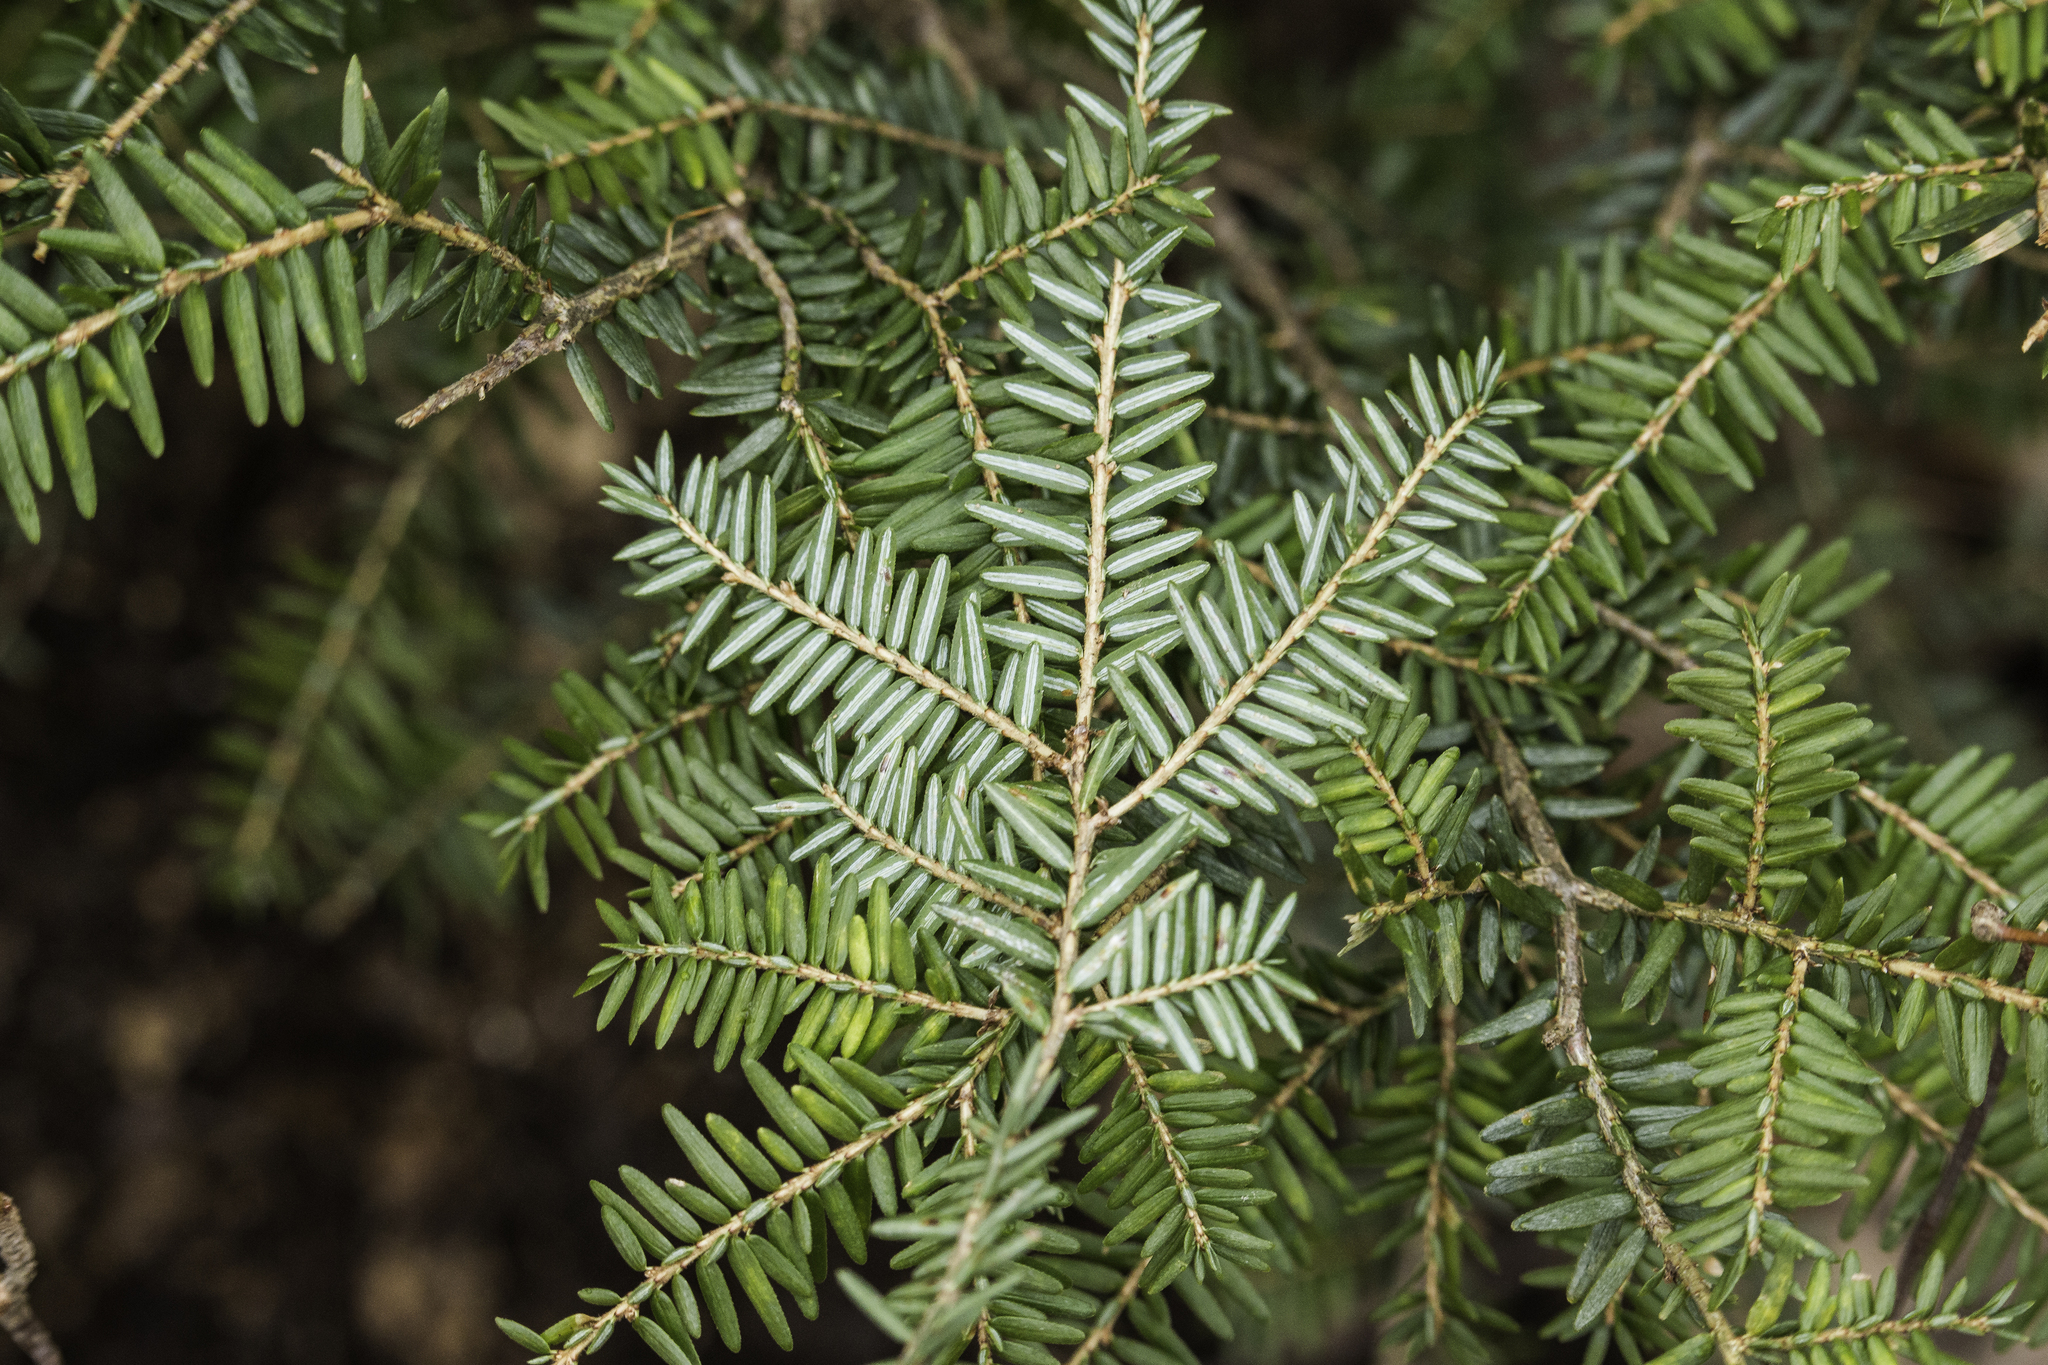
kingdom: Plantae
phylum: Tracheophyta
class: Pinopsida
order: Pinales
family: Pinaceae
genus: Tsuga
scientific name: Tsuga canadensis
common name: Eastern hemlock
